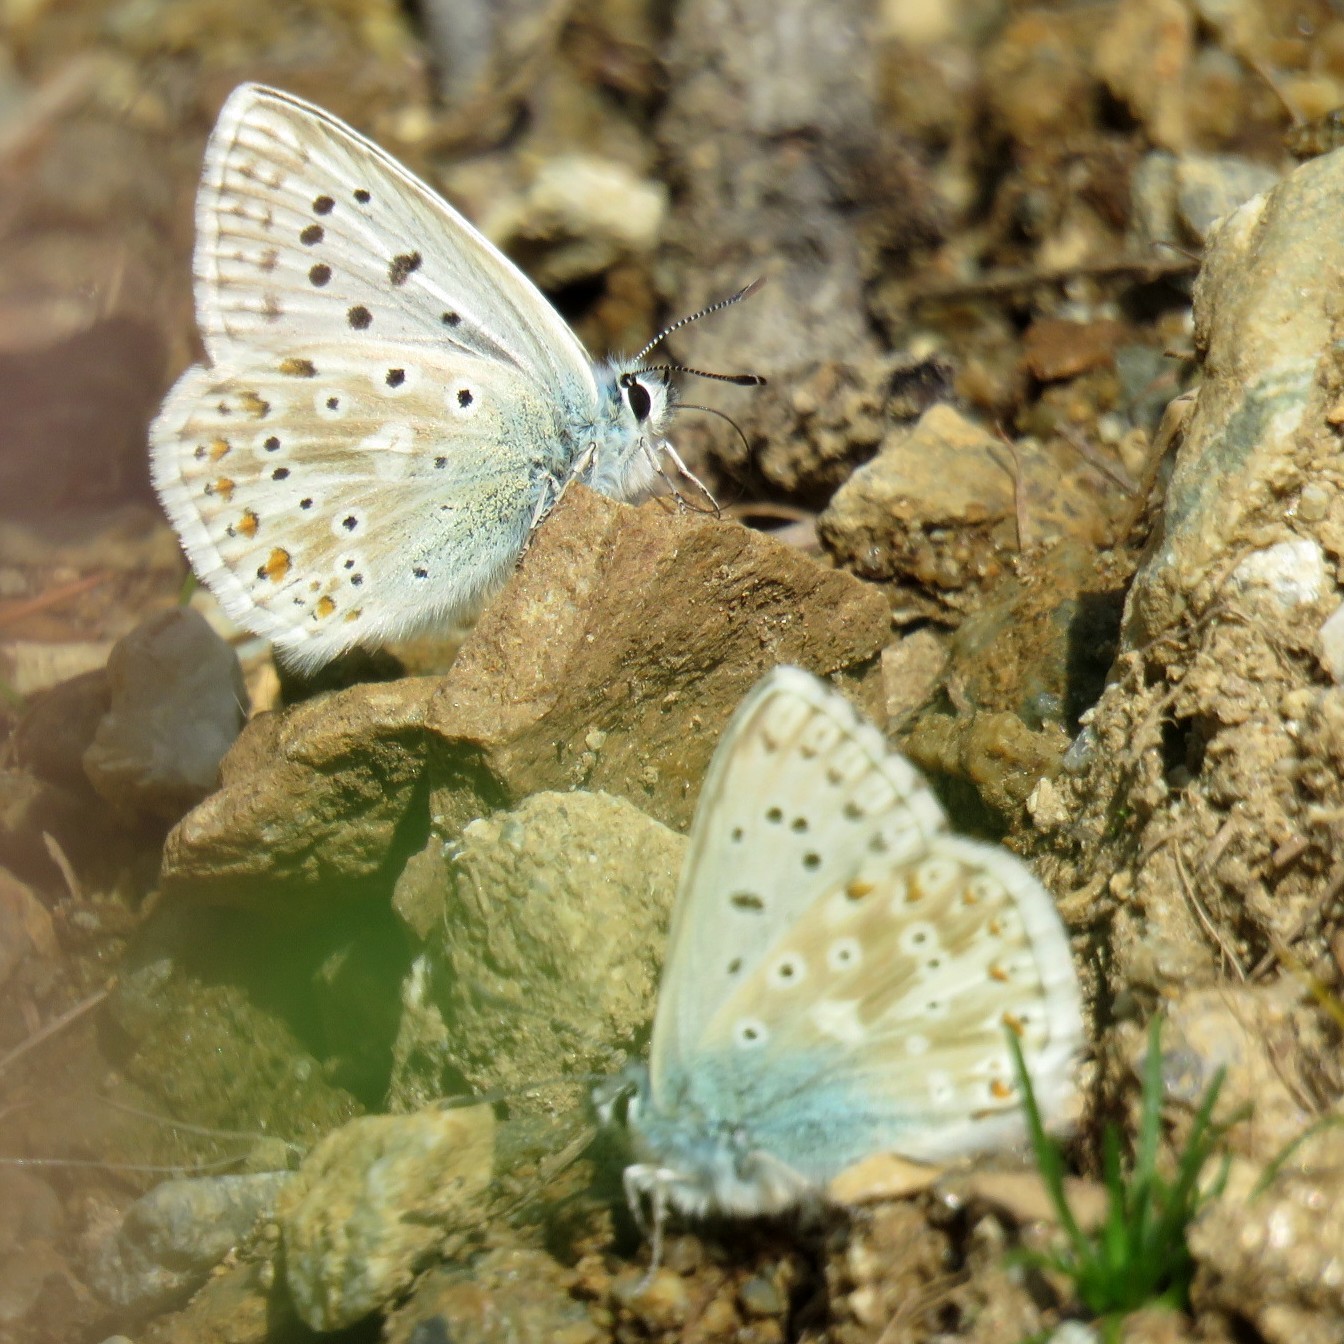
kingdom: Animalia
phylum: Arthropoda
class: Insecta
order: Lepidoptera
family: Lycaenidae
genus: Lysandra
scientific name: Lysandra coridon
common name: Chalkhill blue
